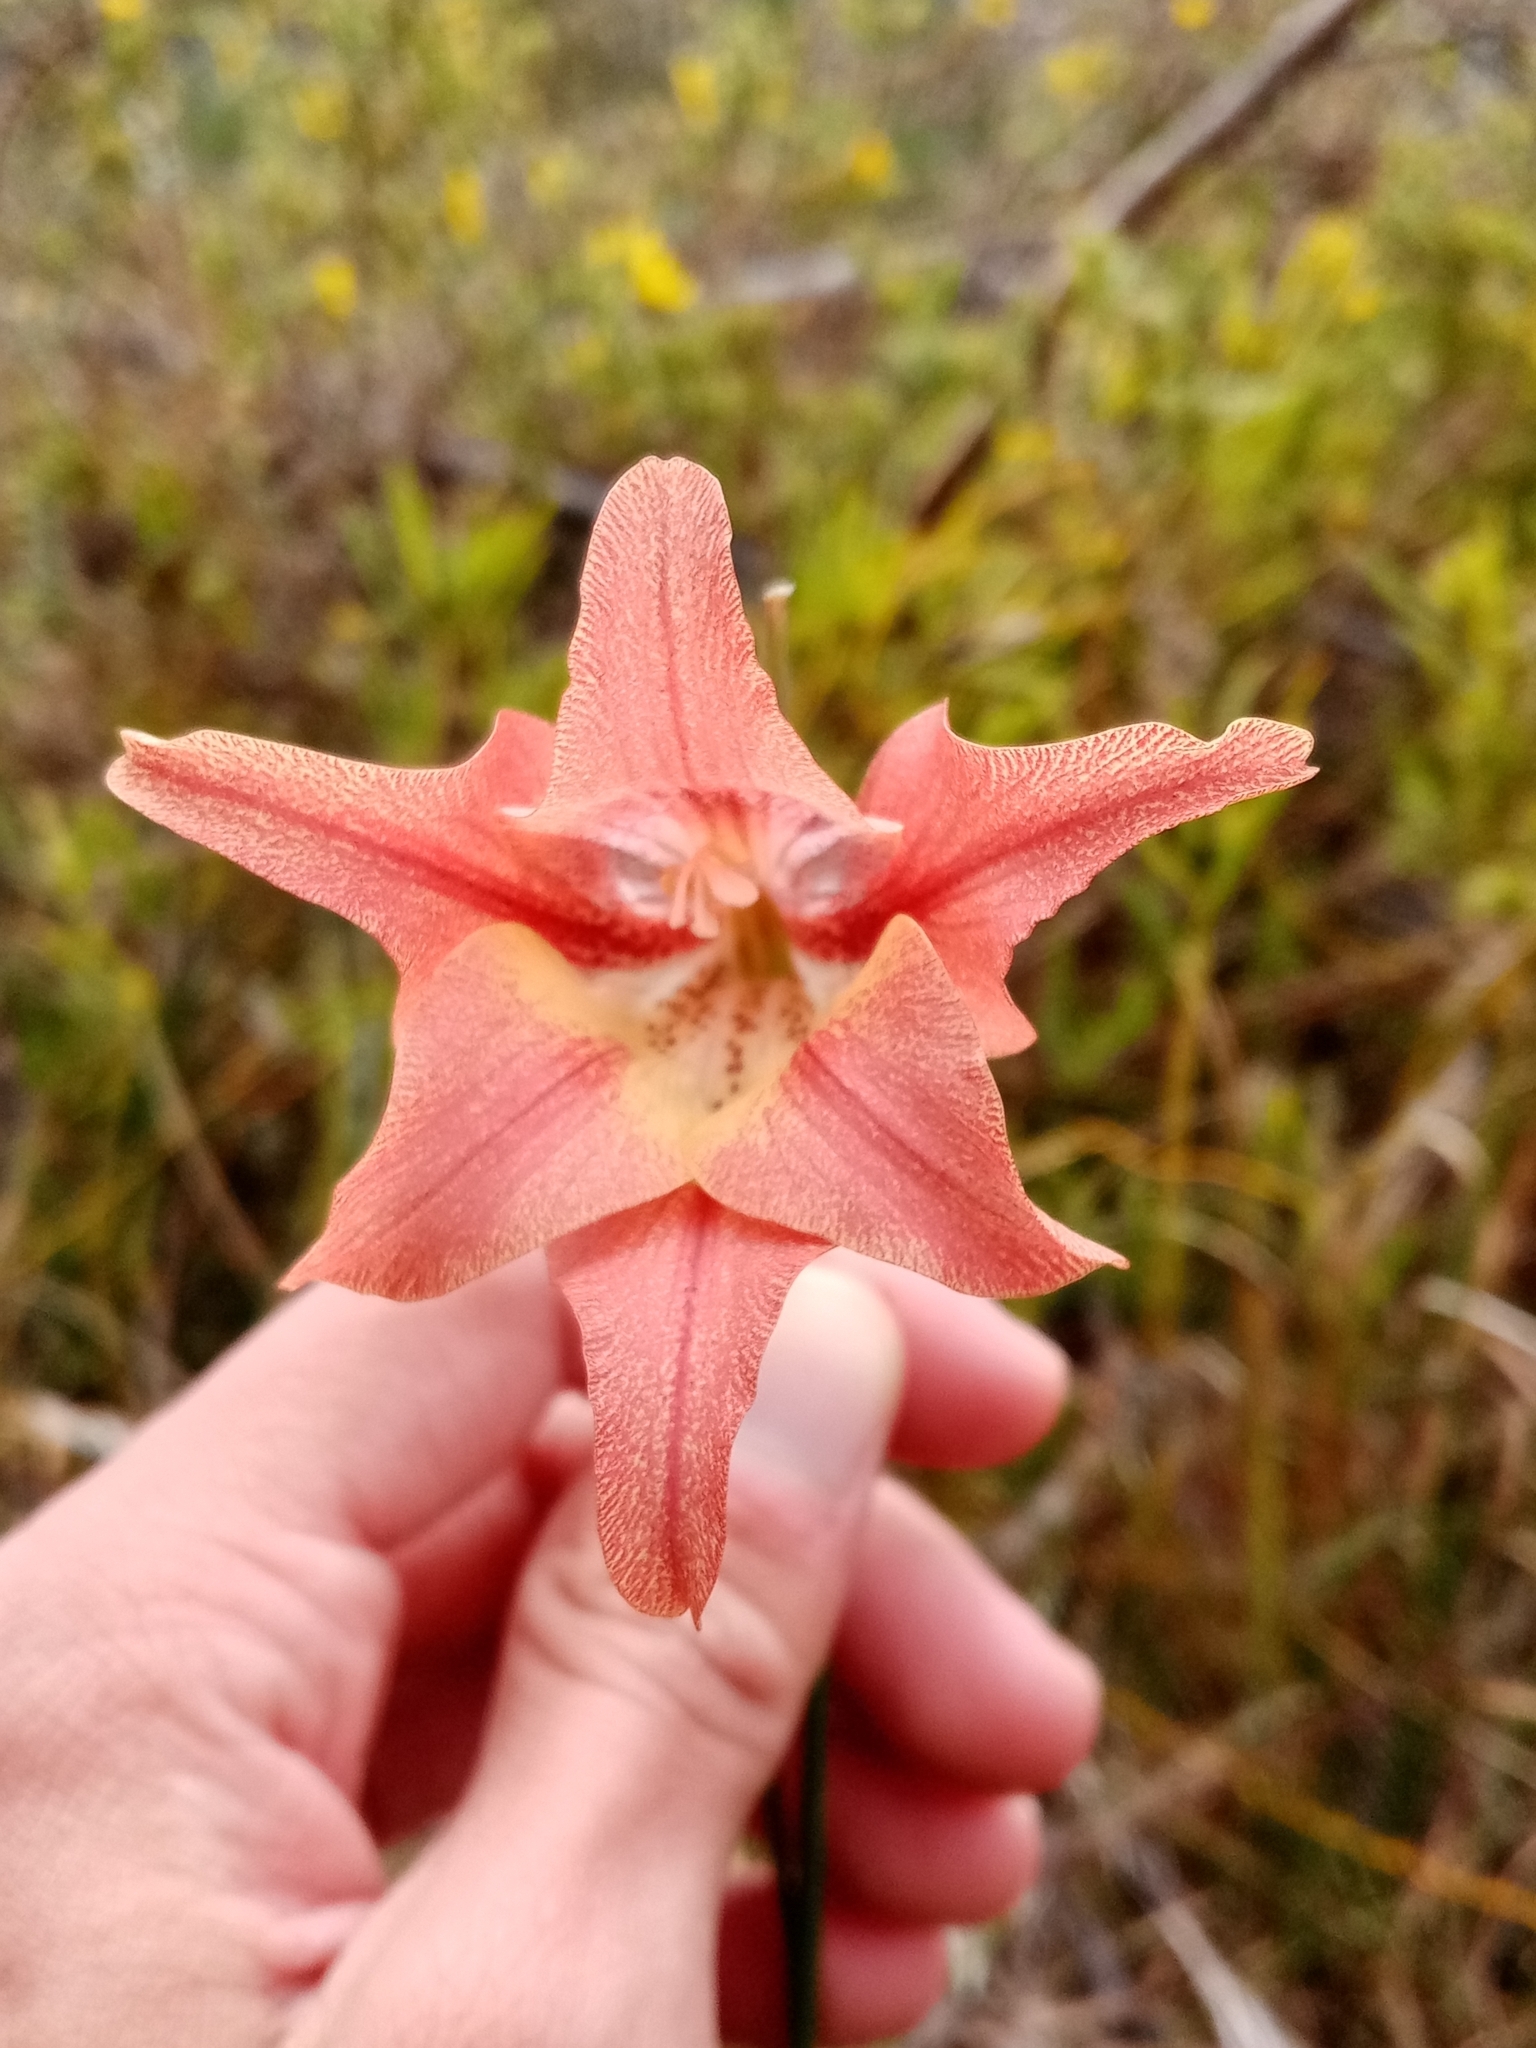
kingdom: Plantae
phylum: Tracheophyta
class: Liliopsida
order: Asparagales
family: Iridaceae
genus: Gladiolus
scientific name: Gladiolus liliaceus
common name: Large brown afrikaner
